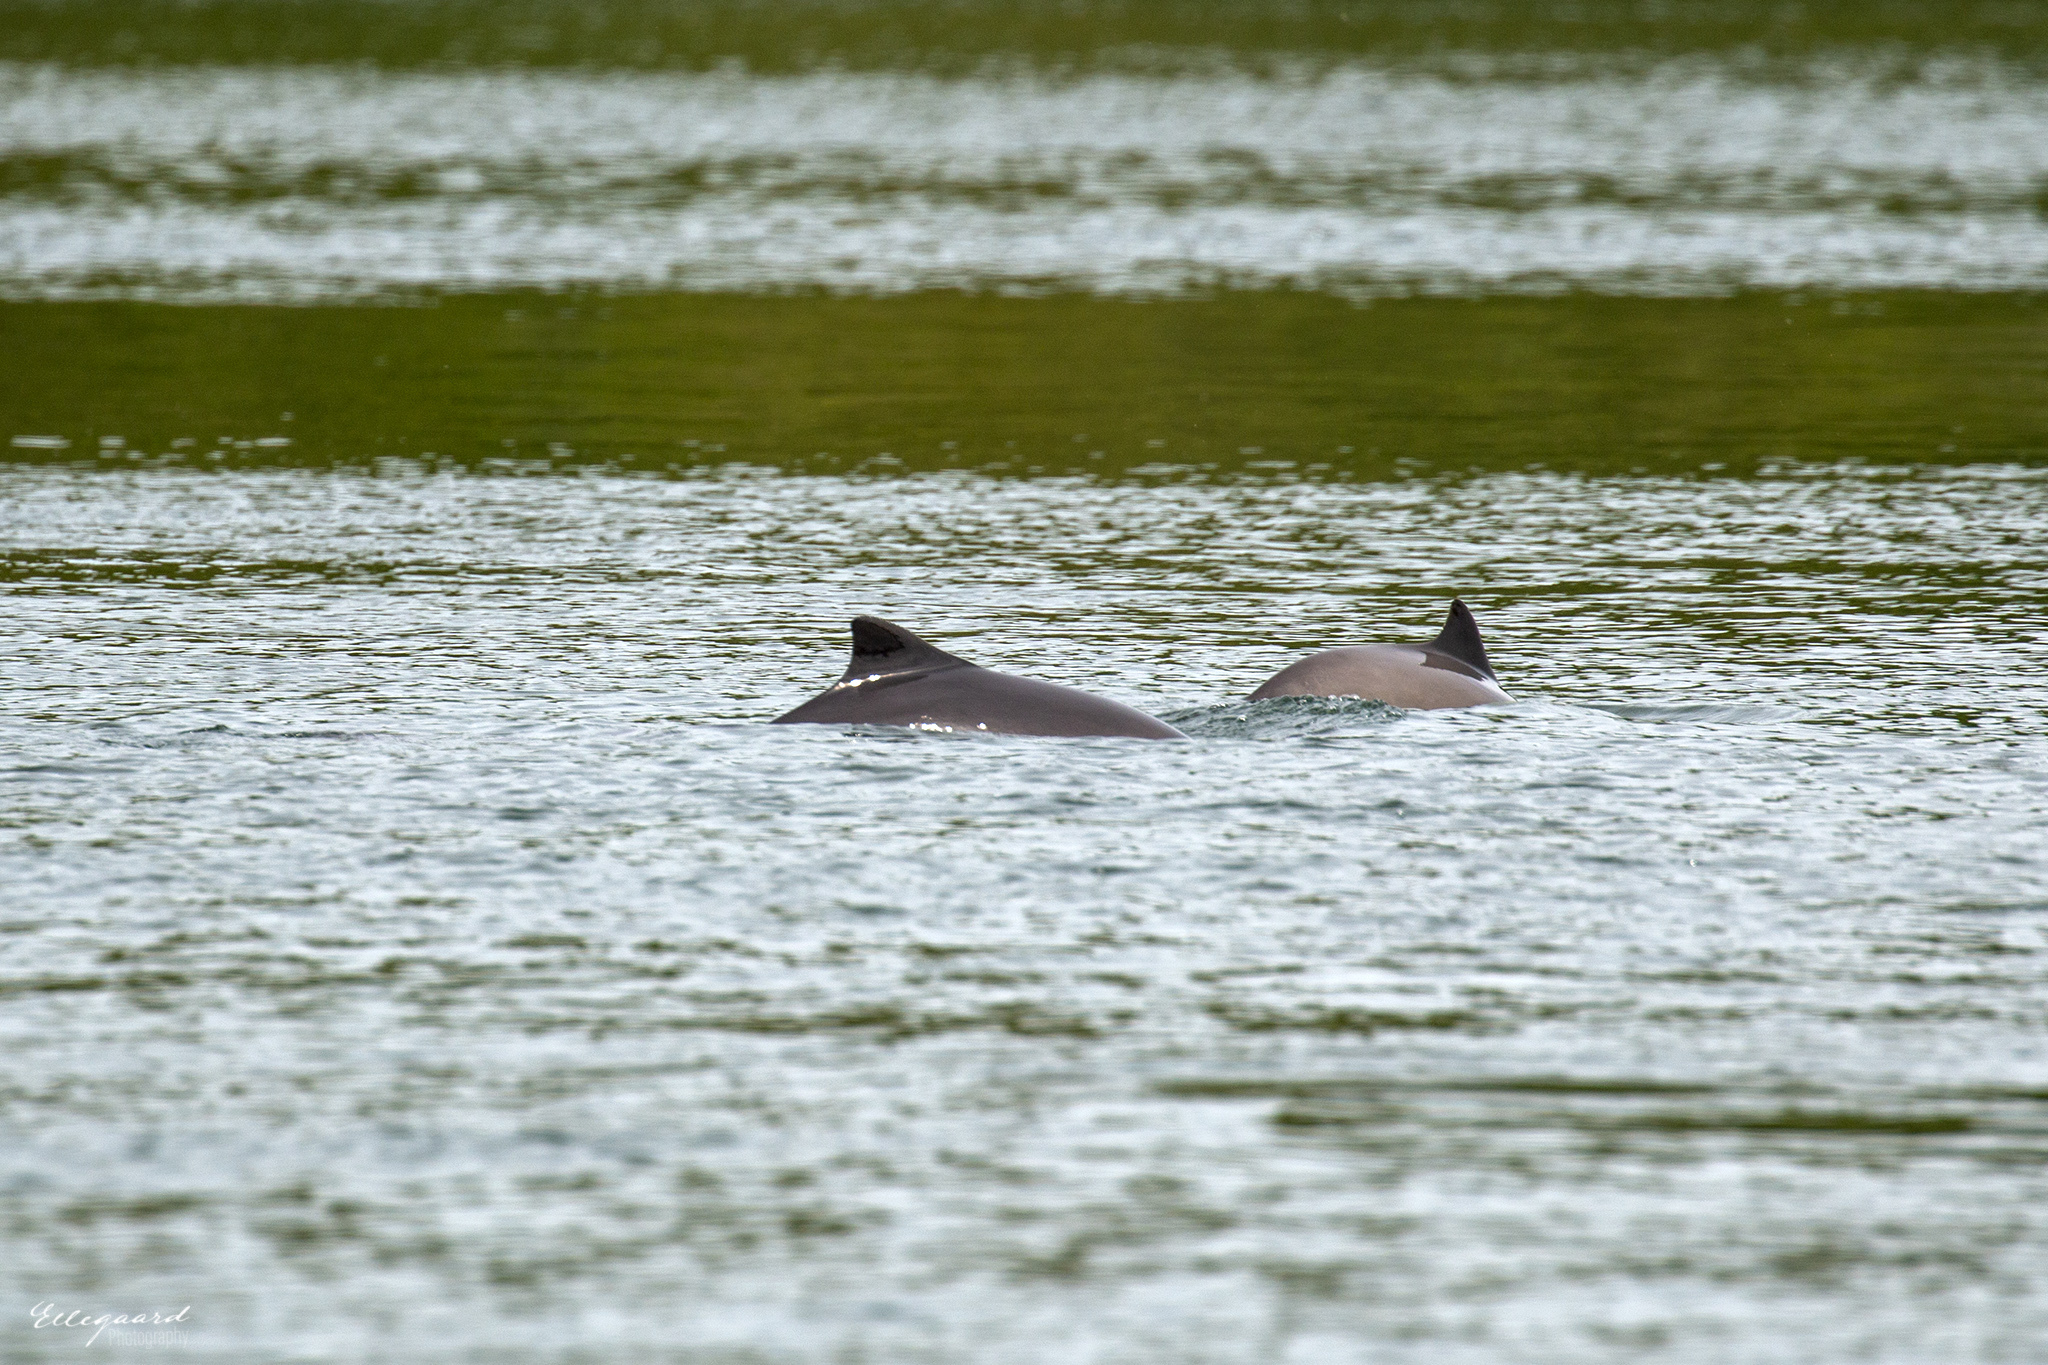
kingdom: Animalia
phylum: Chordata
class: Mammalia
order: Cetacea
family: Phocoenidae
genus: Phocoena
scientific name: Phocoena phocoena
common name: Harbor porpoise
